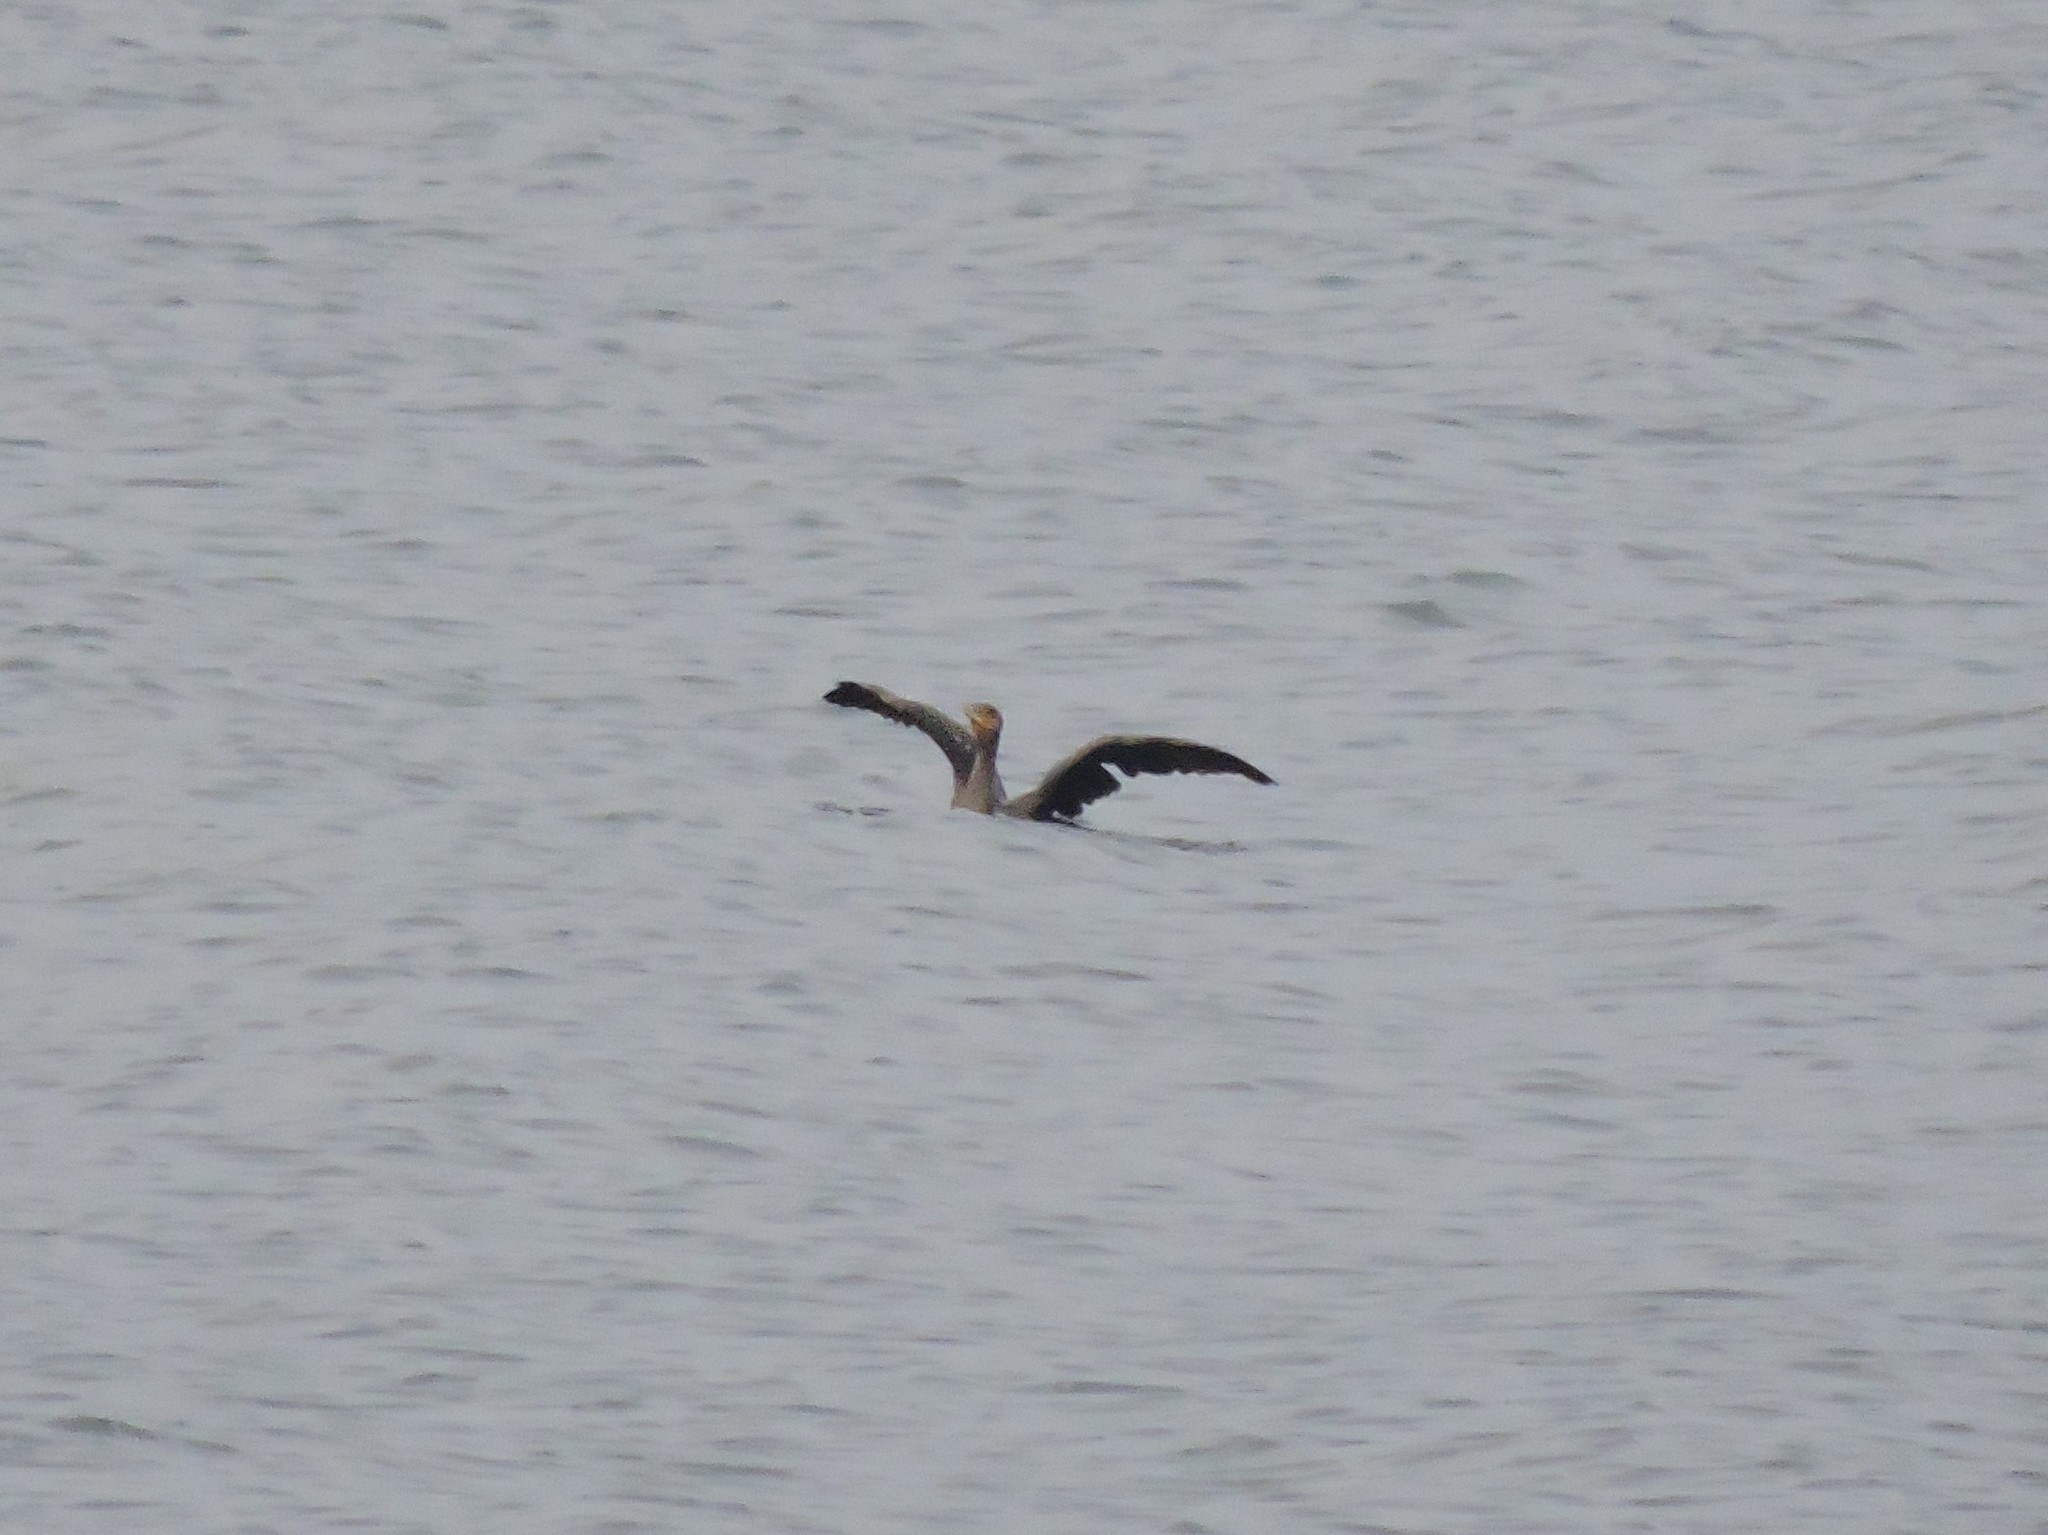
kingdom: Animalia
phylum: Chordata
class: Aves
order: Suliformes
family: Phalacrocoracidae
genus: Phalacrocorax
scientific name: Phalacrocorax carbo
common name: Great cormorant
